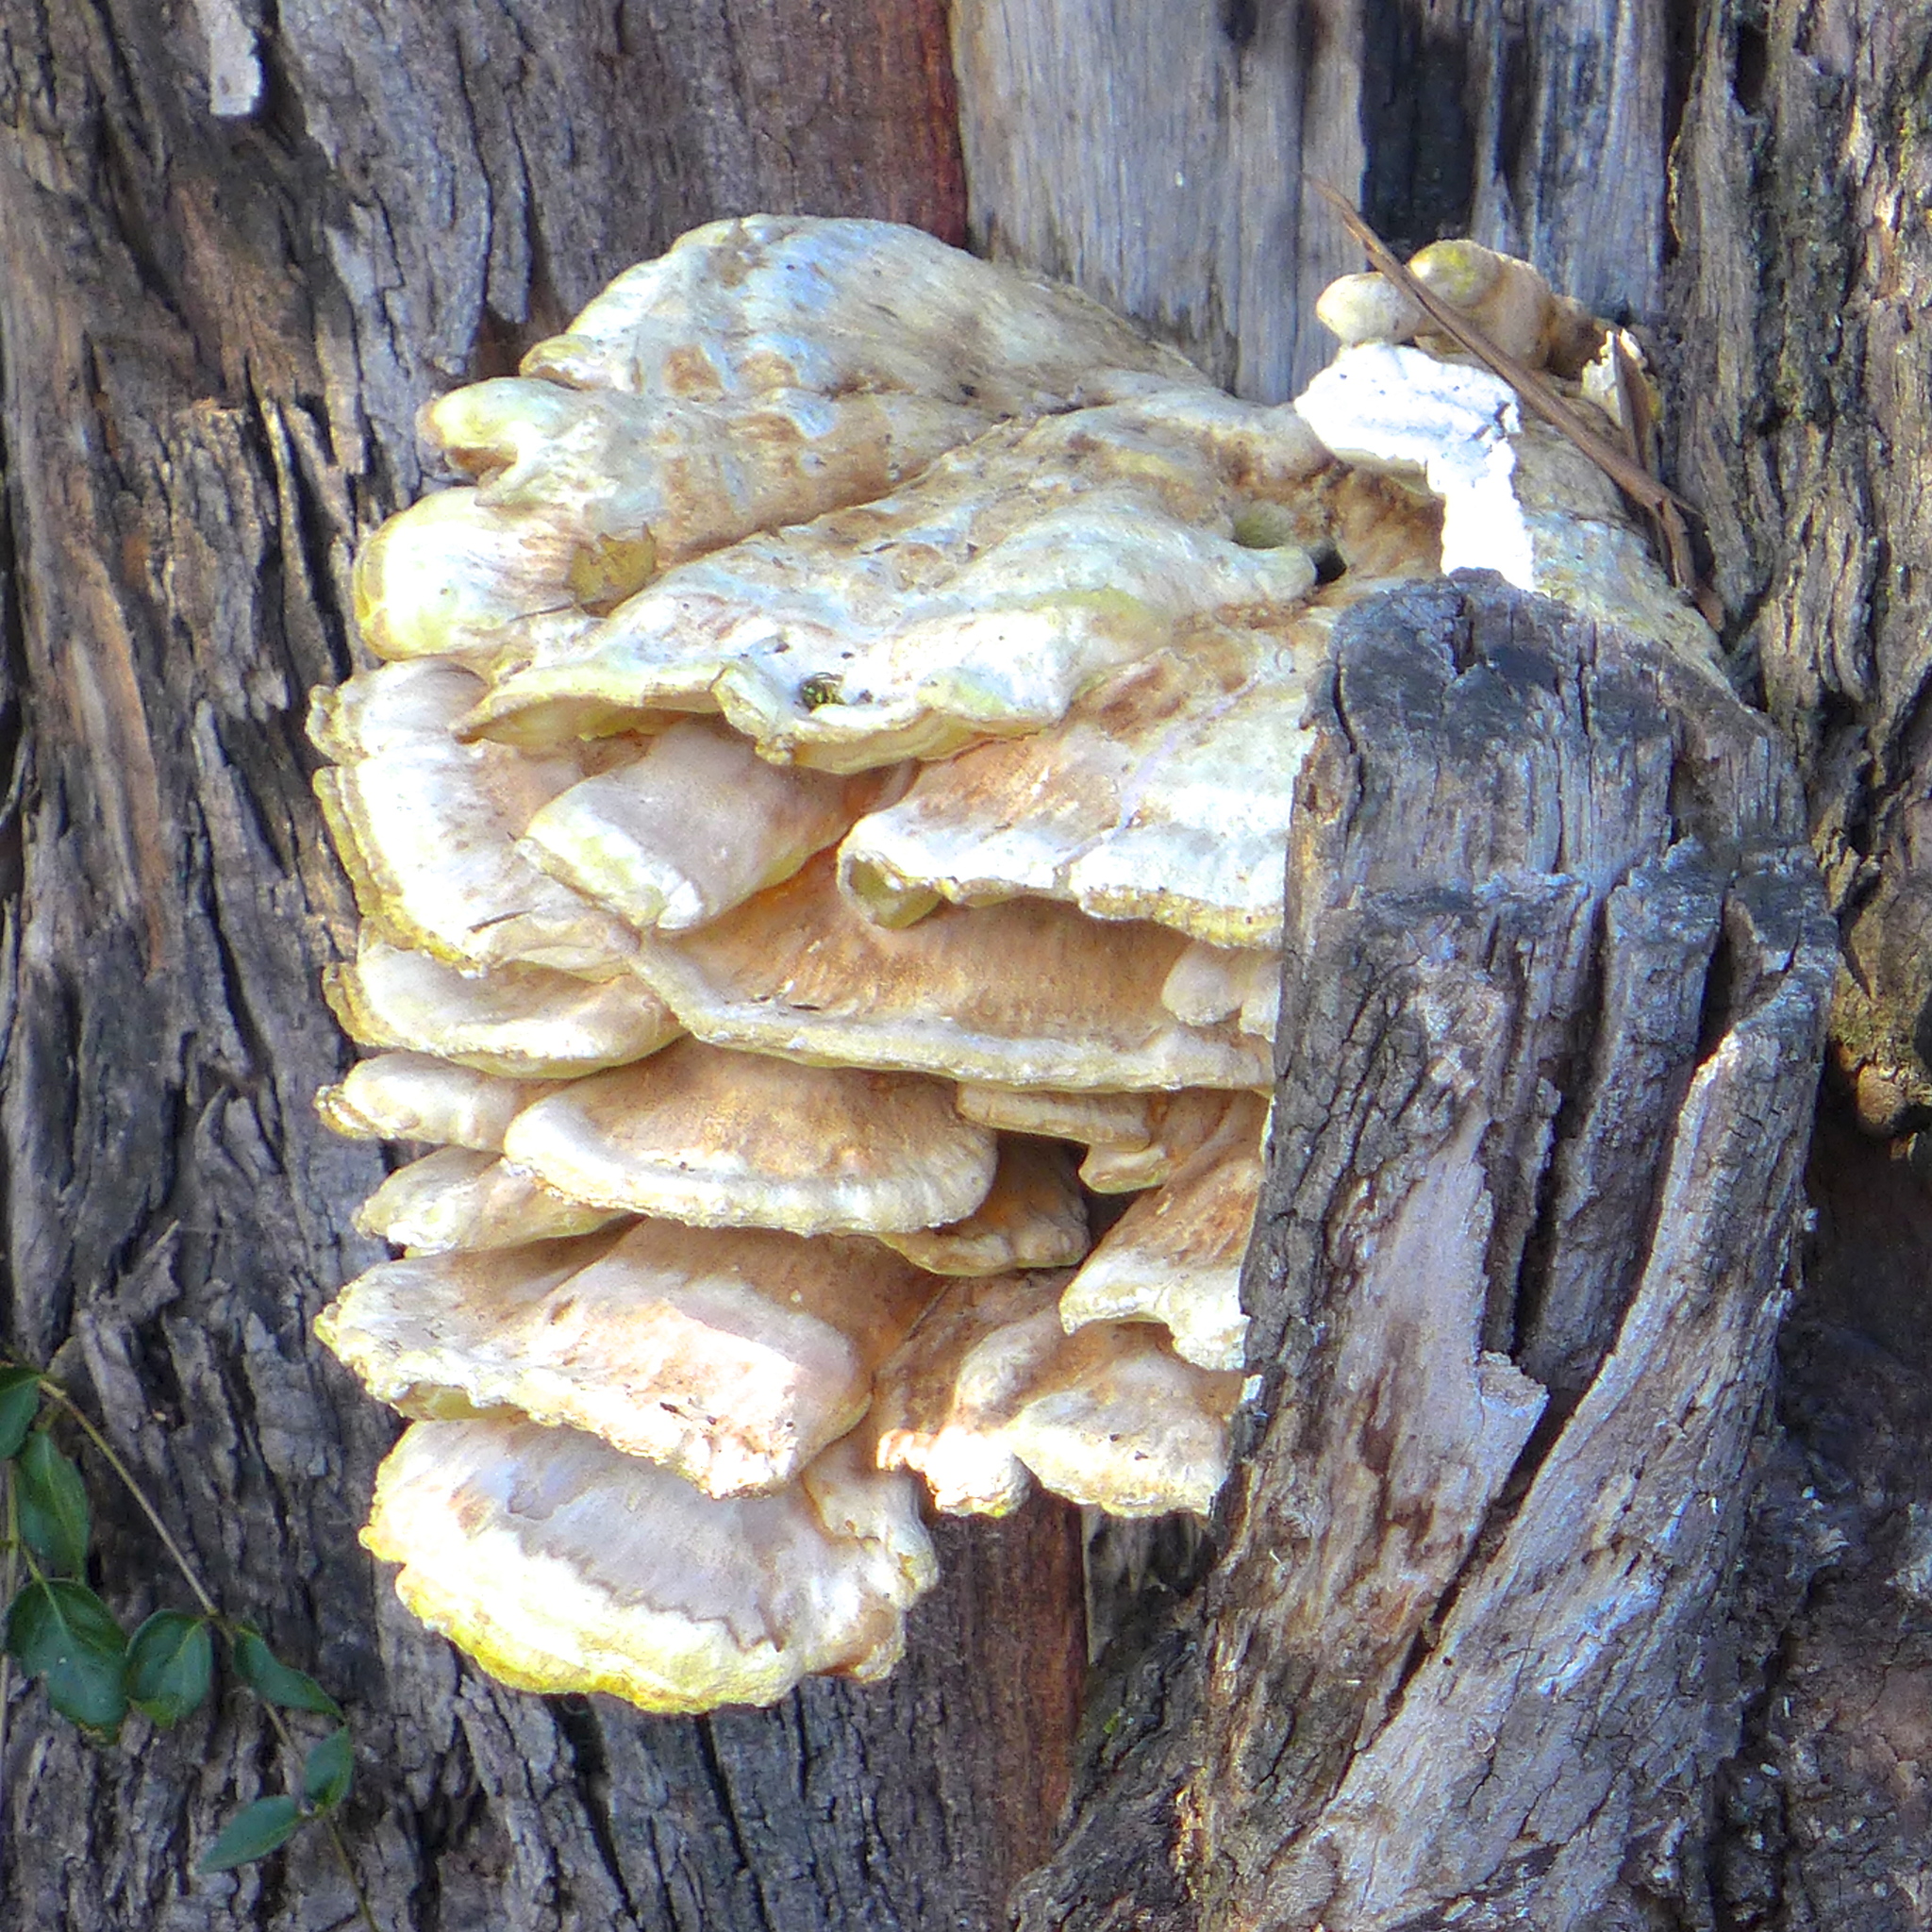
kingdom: Fungi
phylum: Basidiomycota
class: Agaricomycetes
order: Polyporales
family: Laetiporaceae
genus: Laetiporus
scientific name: Laetiporus gilbertsonii
